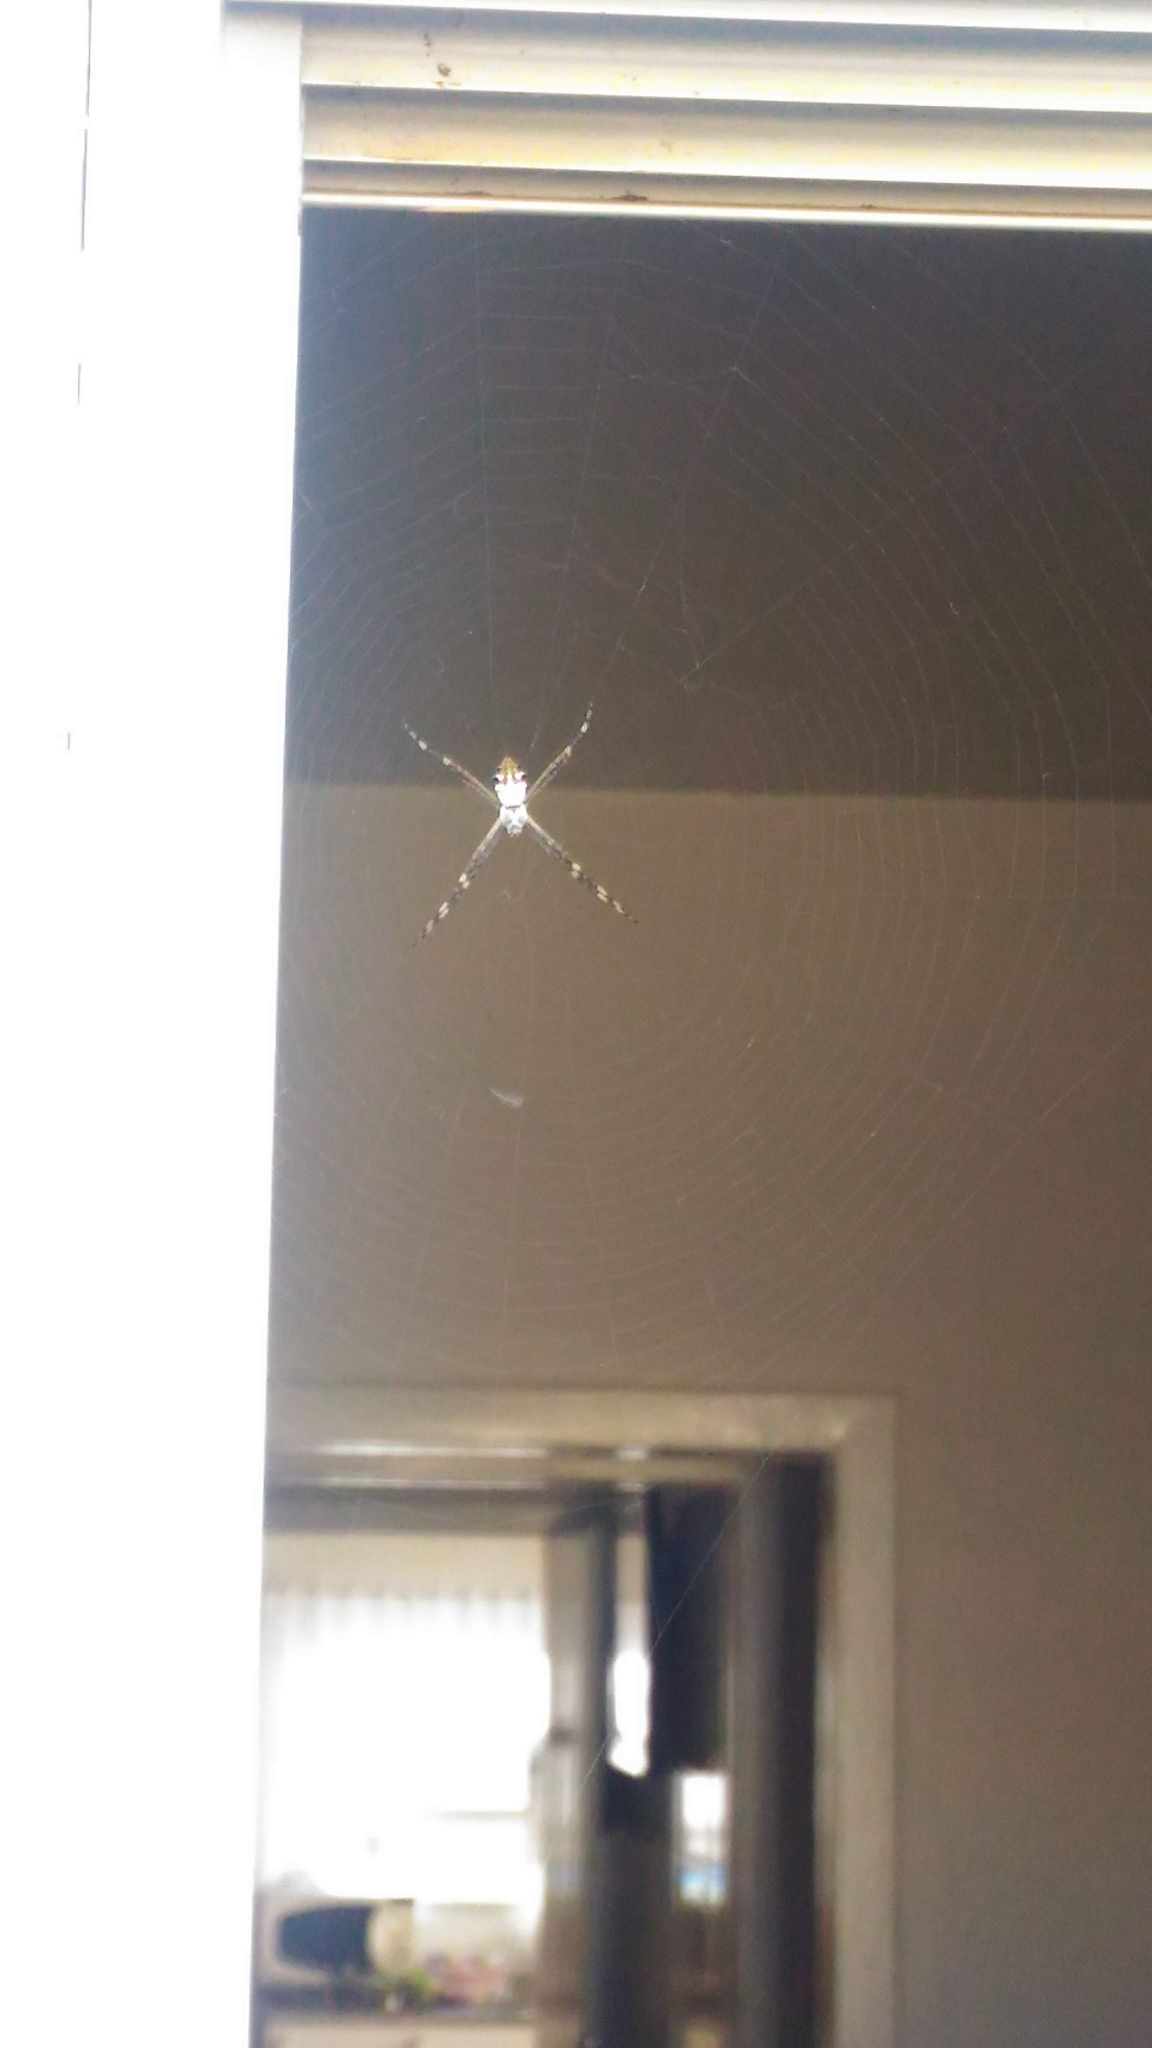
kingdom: Animalia
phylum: Arthropoda
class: Arachnida
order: Araneae
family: Araneidae
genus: Argiope
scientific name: Argiope argentata
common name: Orb weavers
